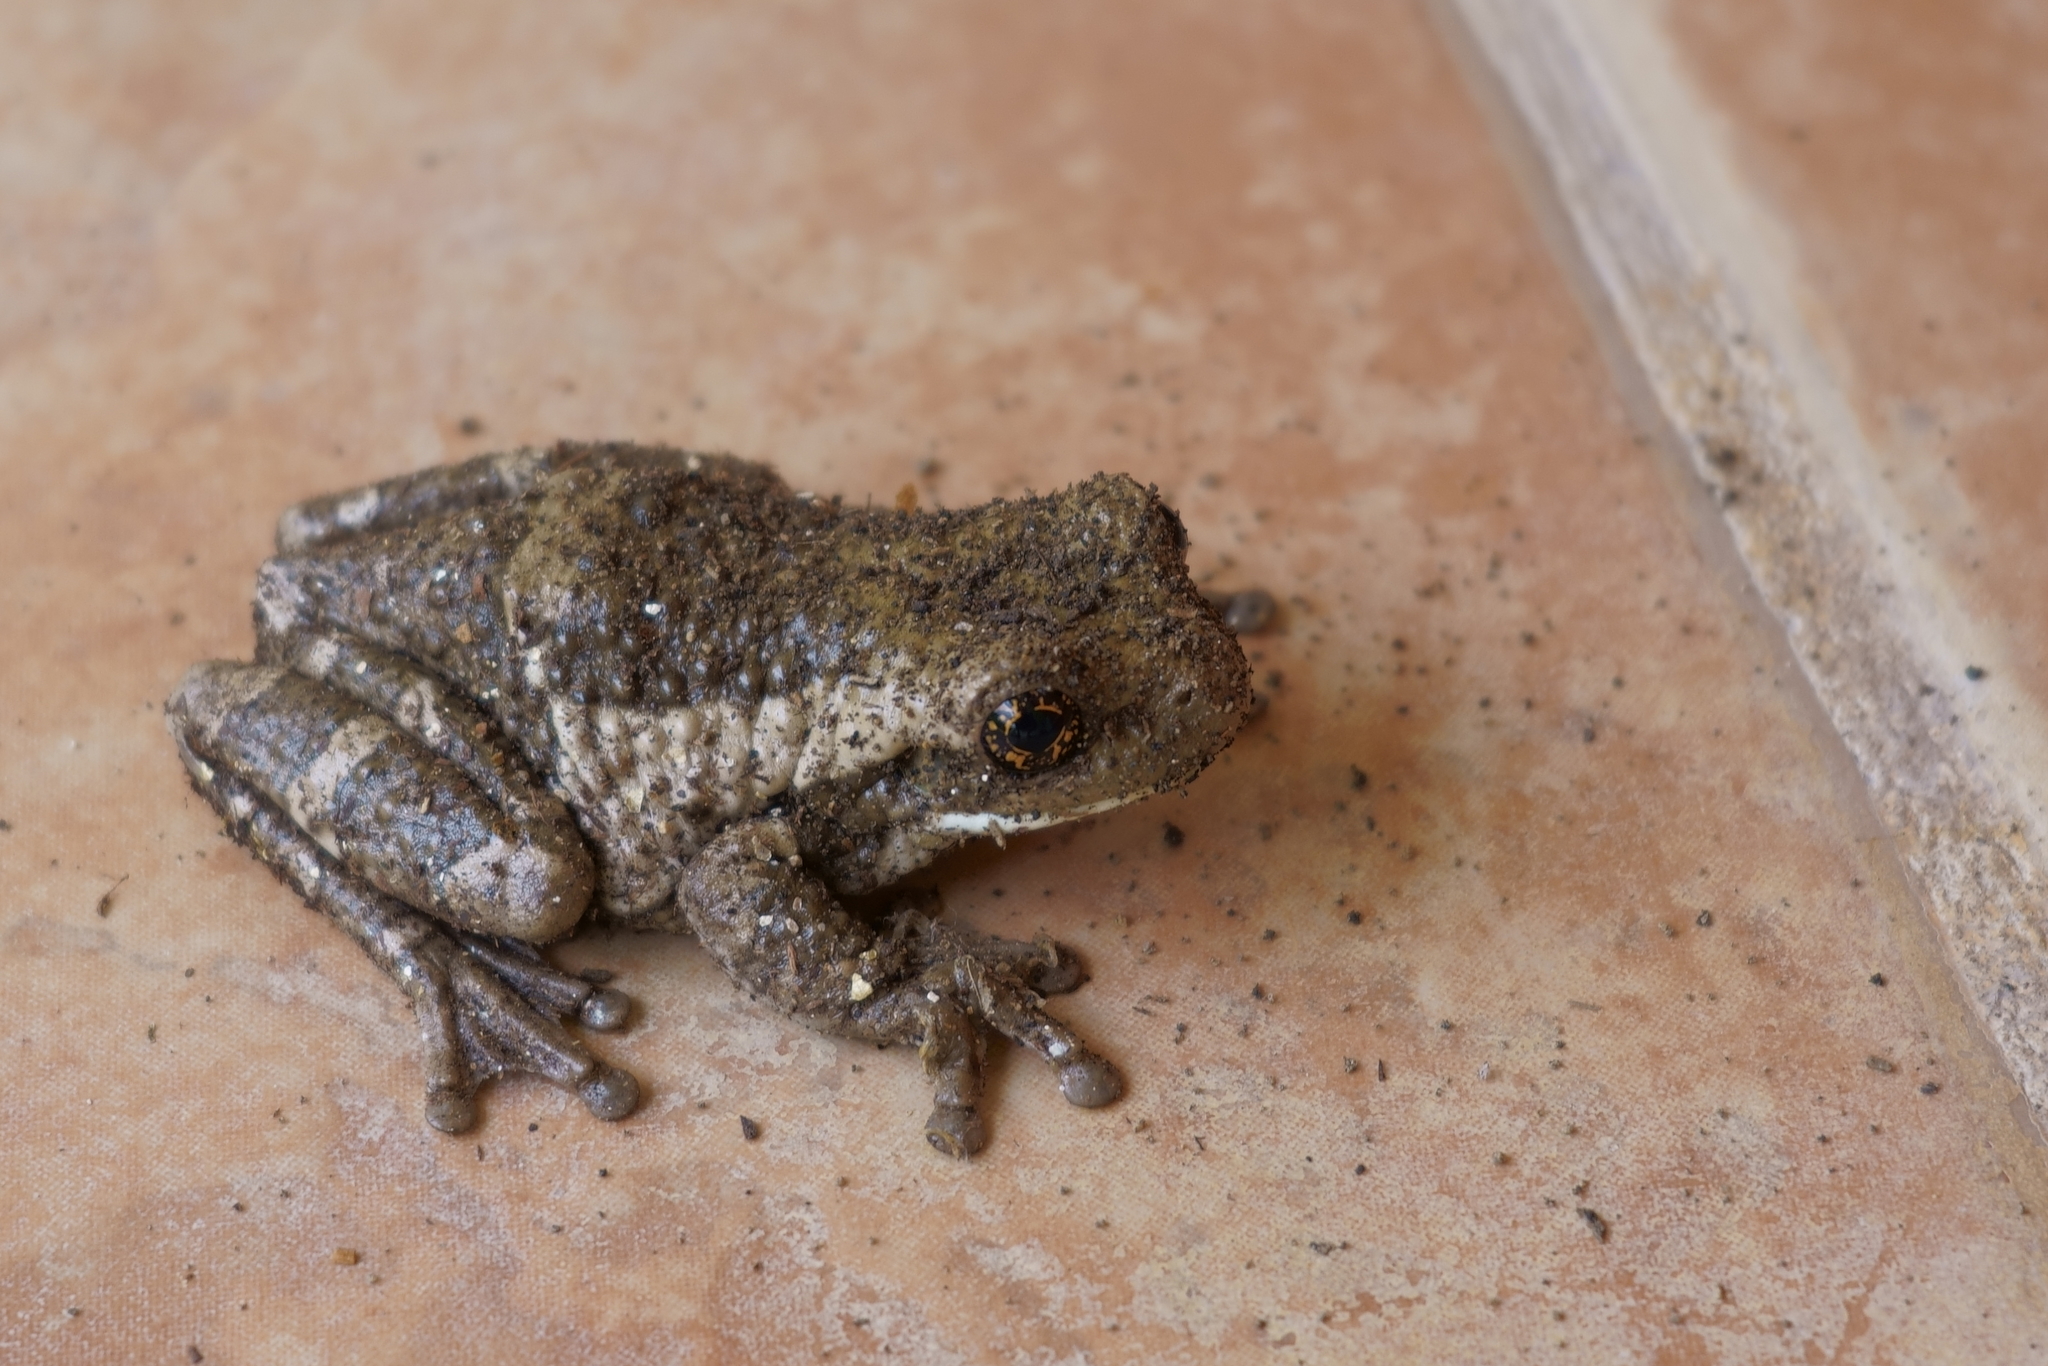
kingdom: Animalia
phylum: Chordata
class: Amphibia
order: Anura
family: Hylidae
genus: Trachycephalus
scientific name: Trachycephalus vermiculatus
